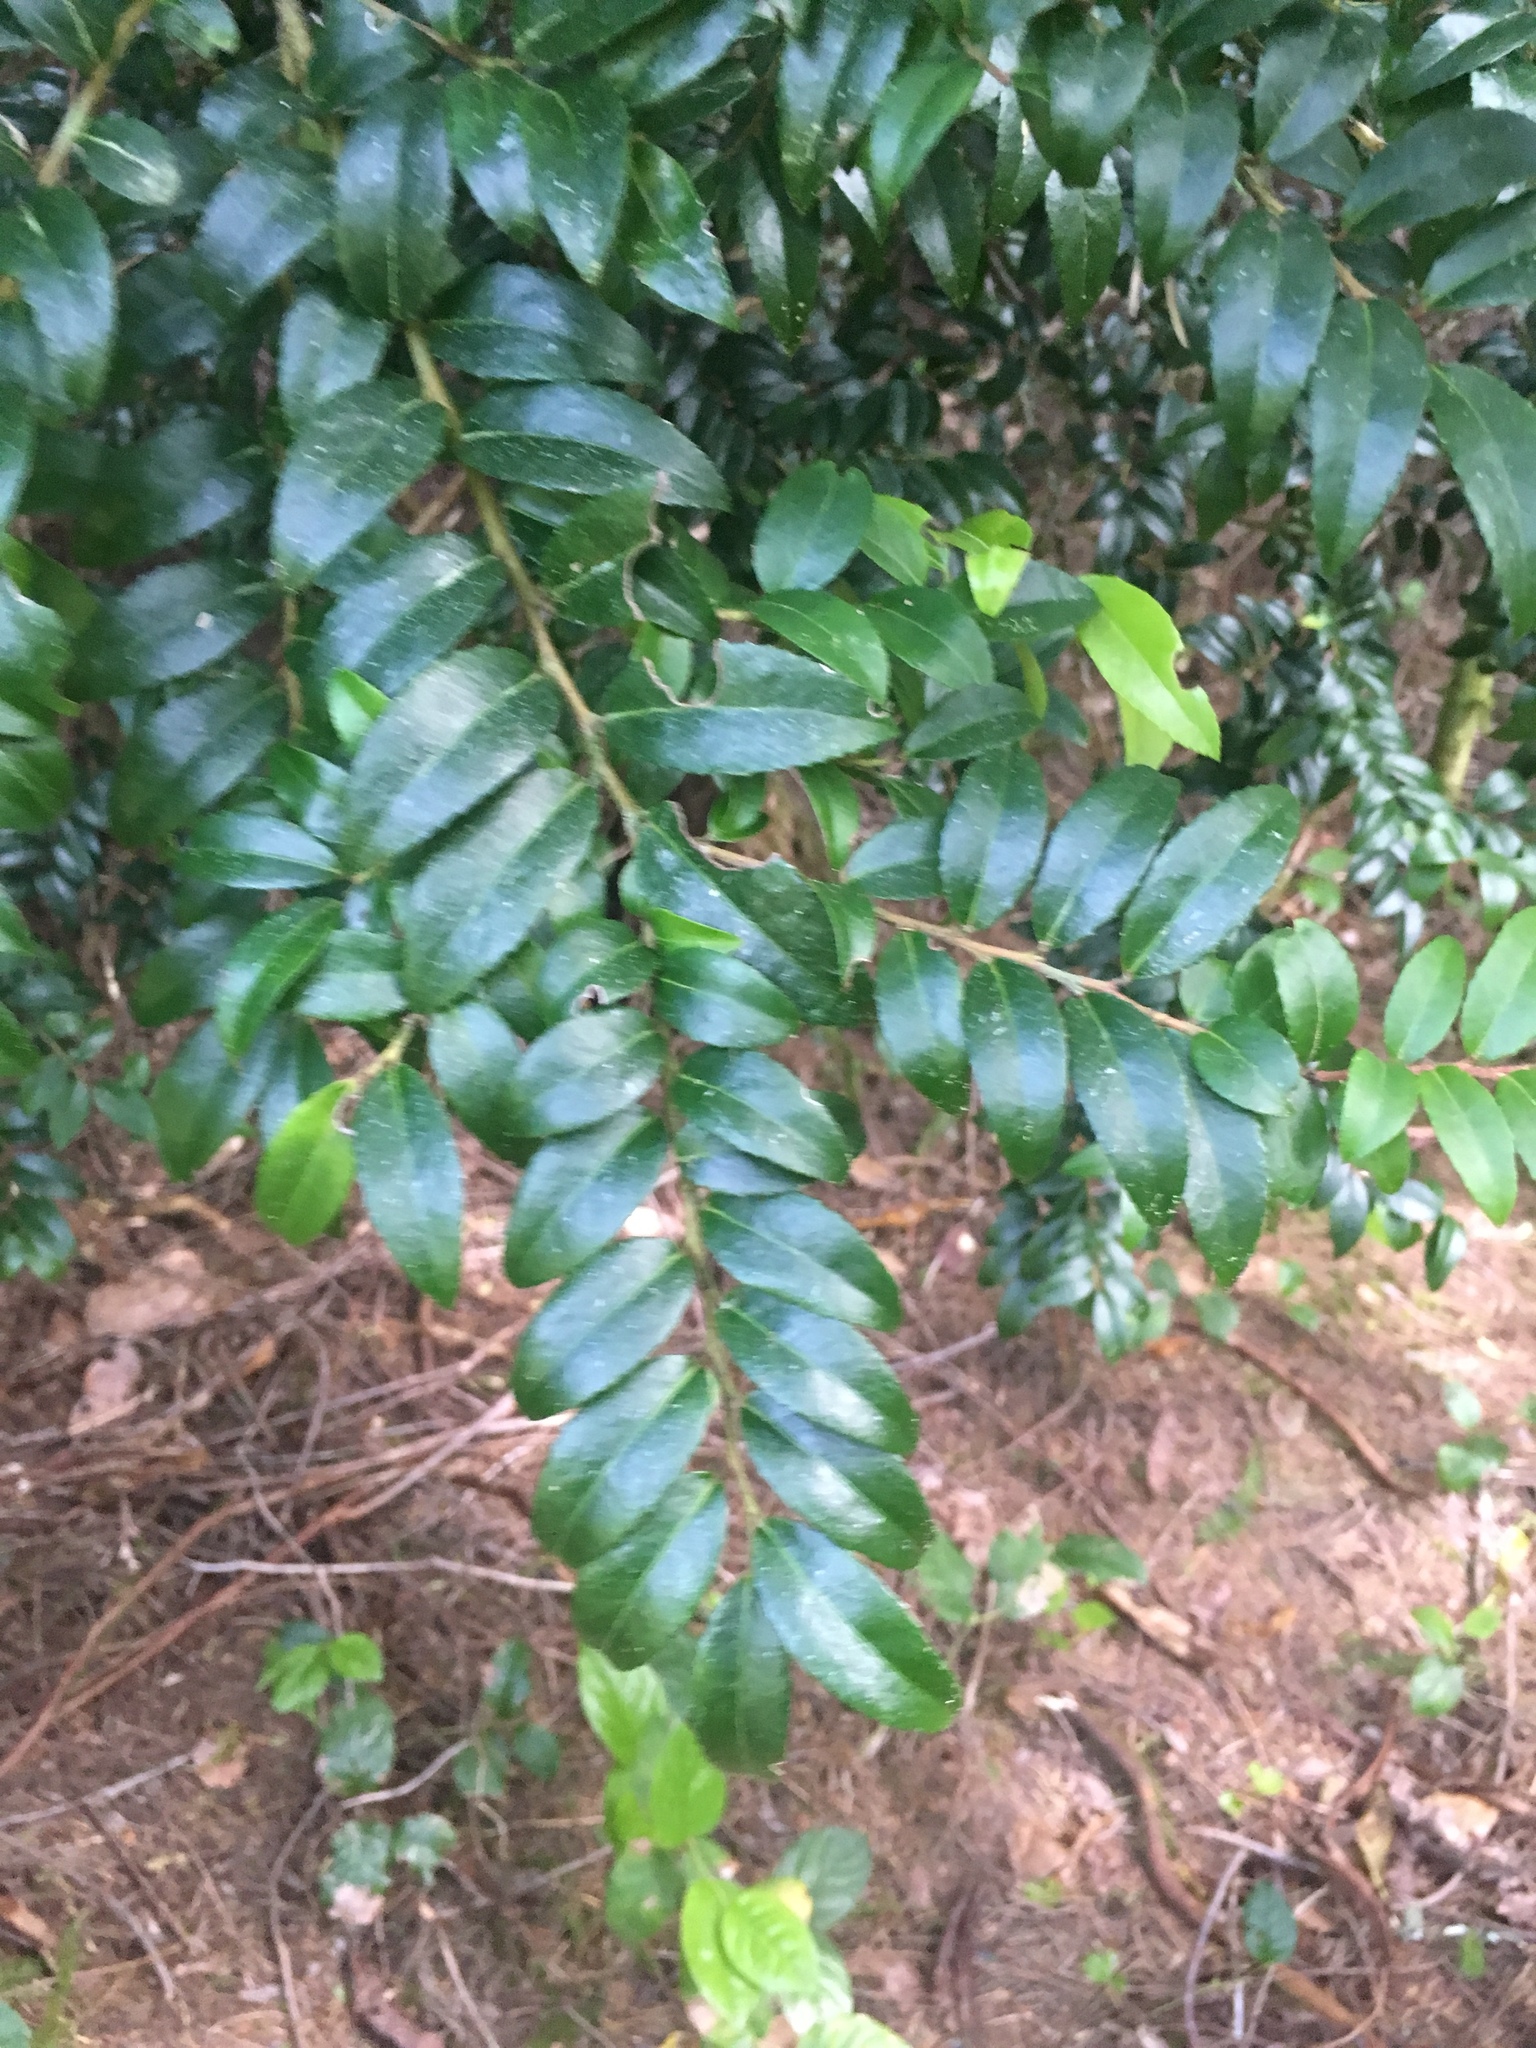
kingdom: Plantae
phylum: Tracheophyta
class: Magnoliopsida
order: Ericales
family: Ericaceae
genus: Vaccinium
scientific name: Vaccinium ovatum
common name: California-huckleberry
